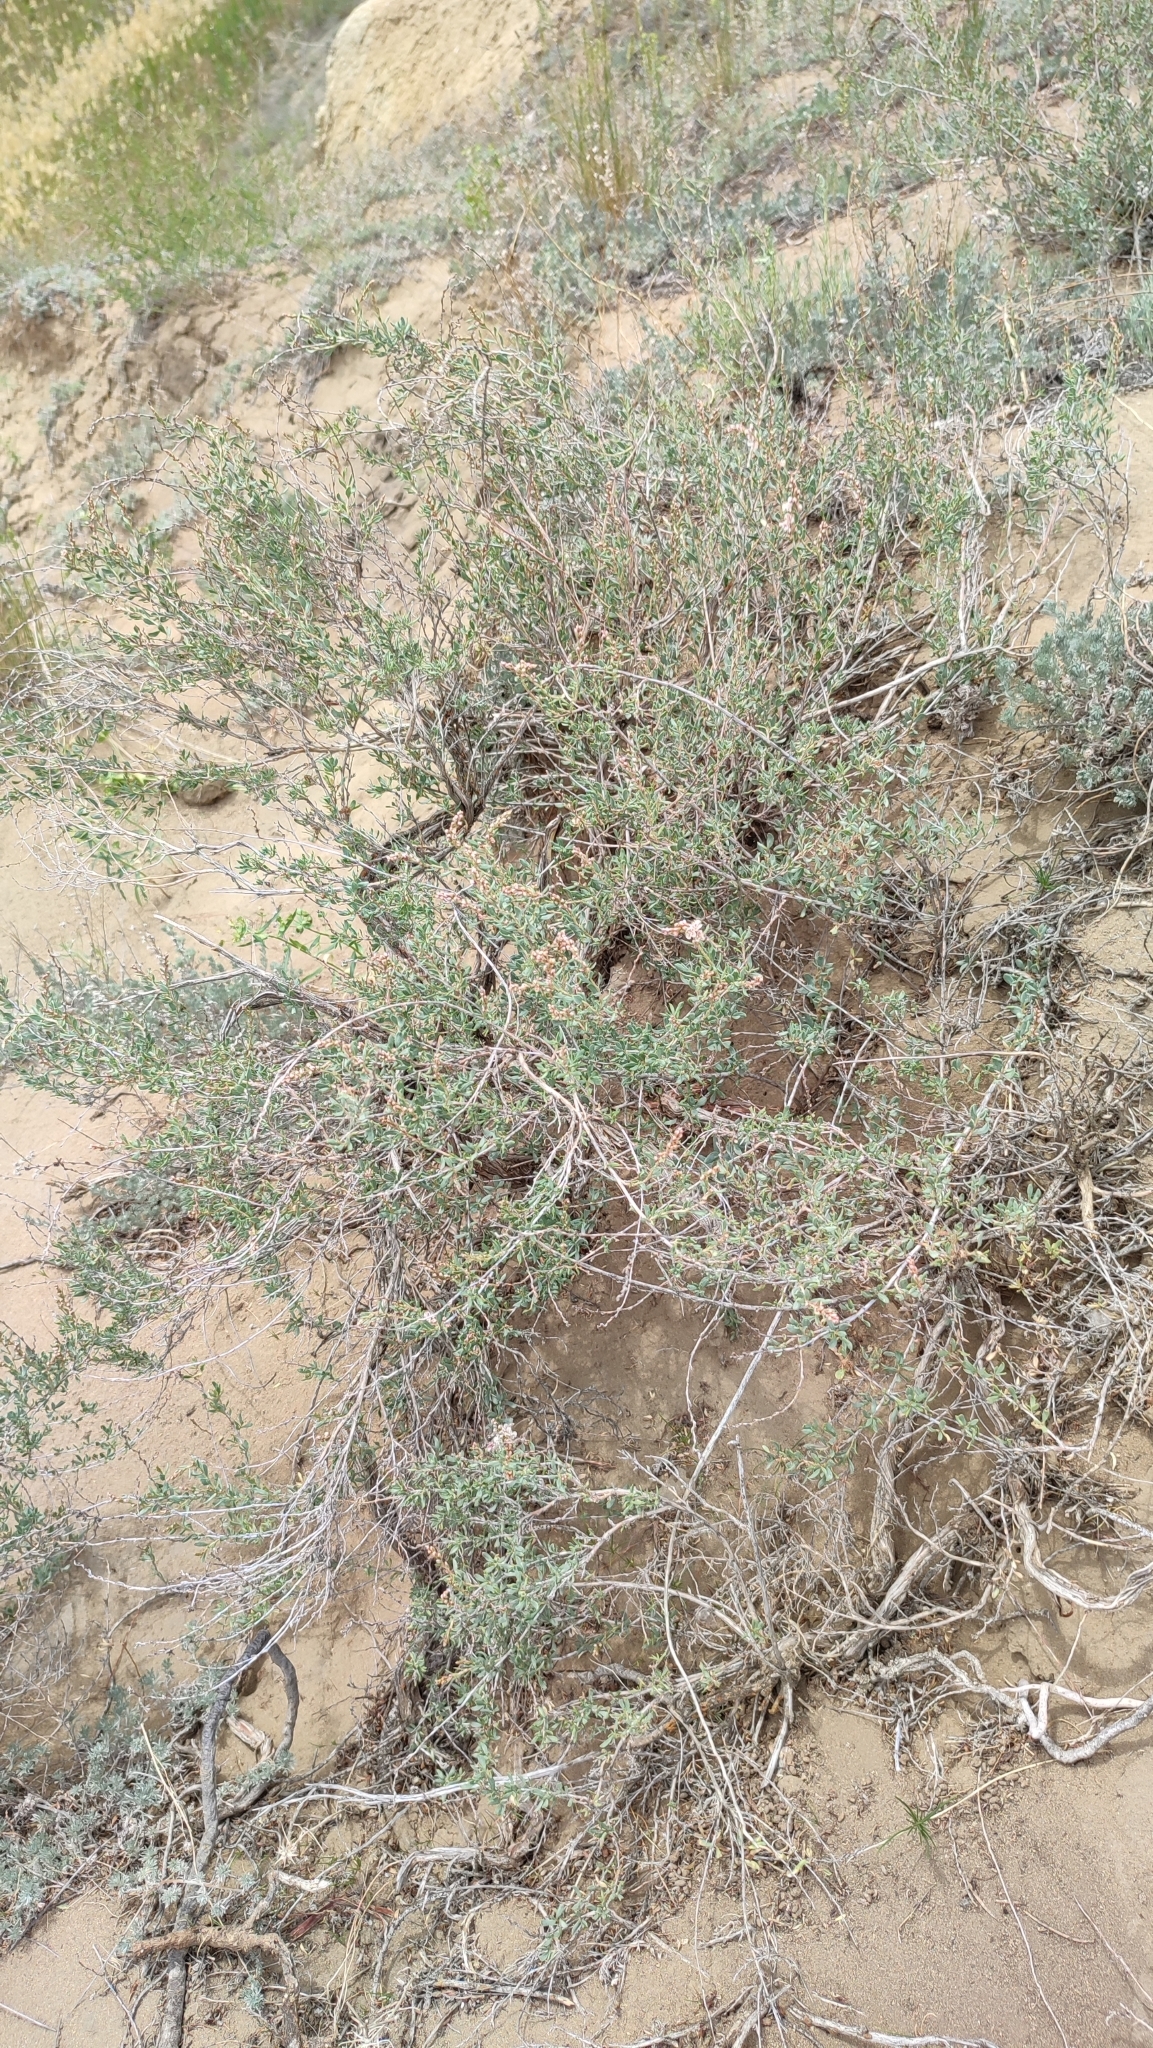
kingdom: Plantae
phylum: Tracheophyta
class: Magnoliopsida
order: Caryophyllales
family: Polygonaceae
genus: Atraphaxis
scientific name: Atraphaxis frutescens
